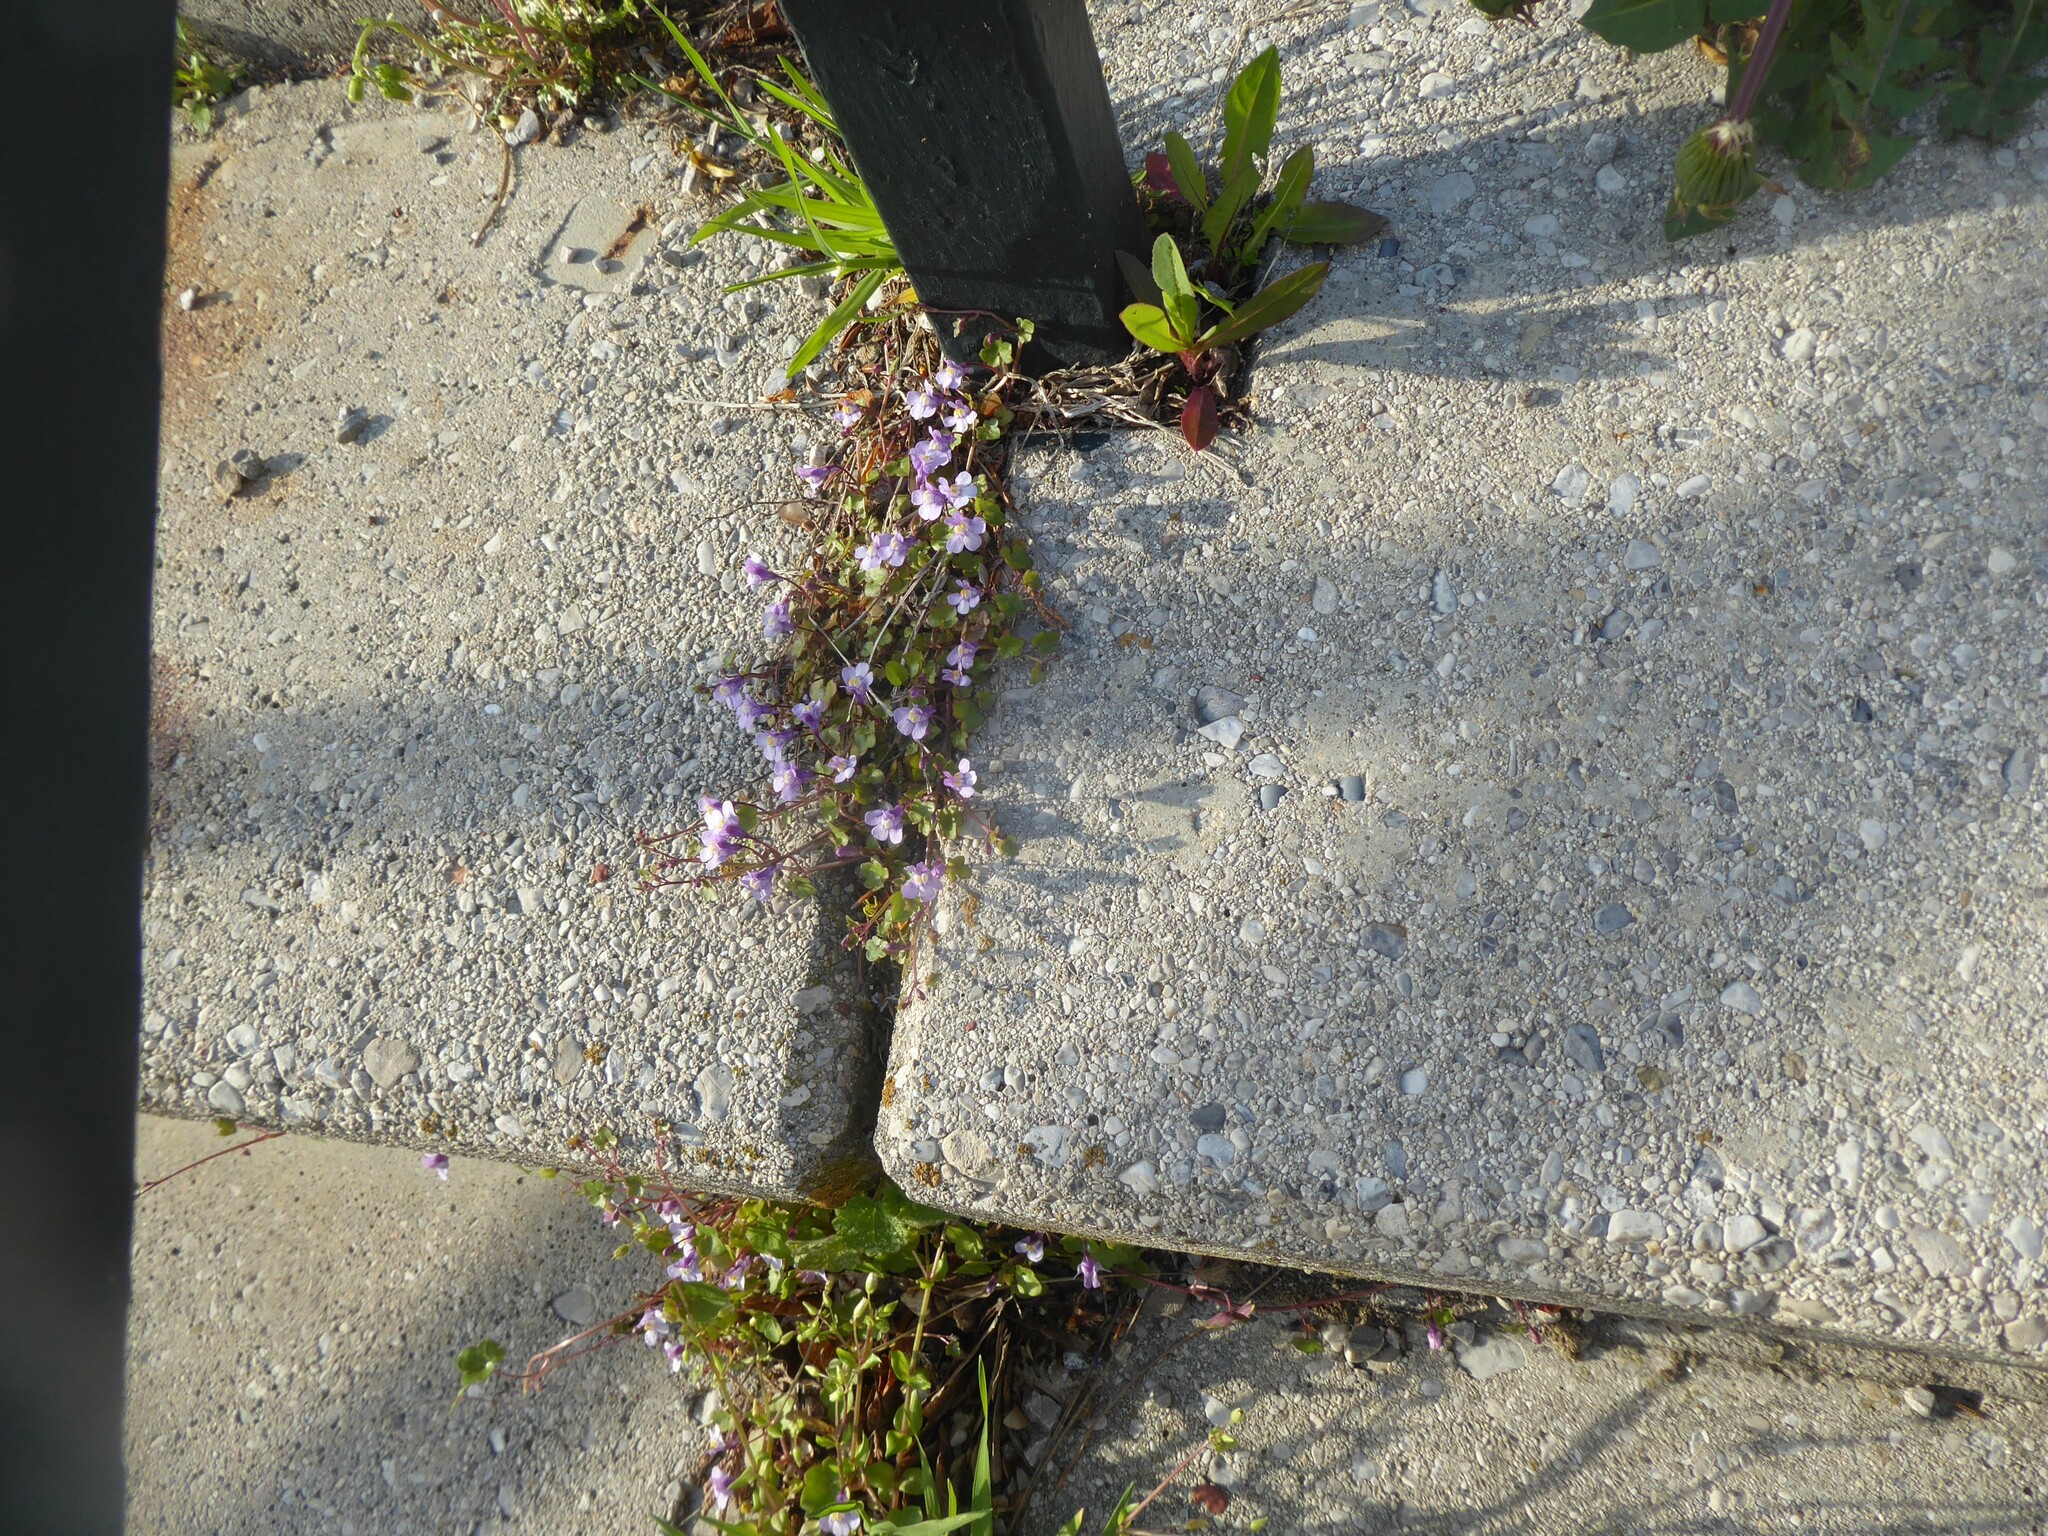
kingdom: Plantae
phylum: Tracheophyta
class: Magnoliopsida
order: Lamiales
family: Plantaginaceae
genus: Cymbalaria
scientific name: Cymbalaria muralis
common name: Ivy-leaved toadflax
